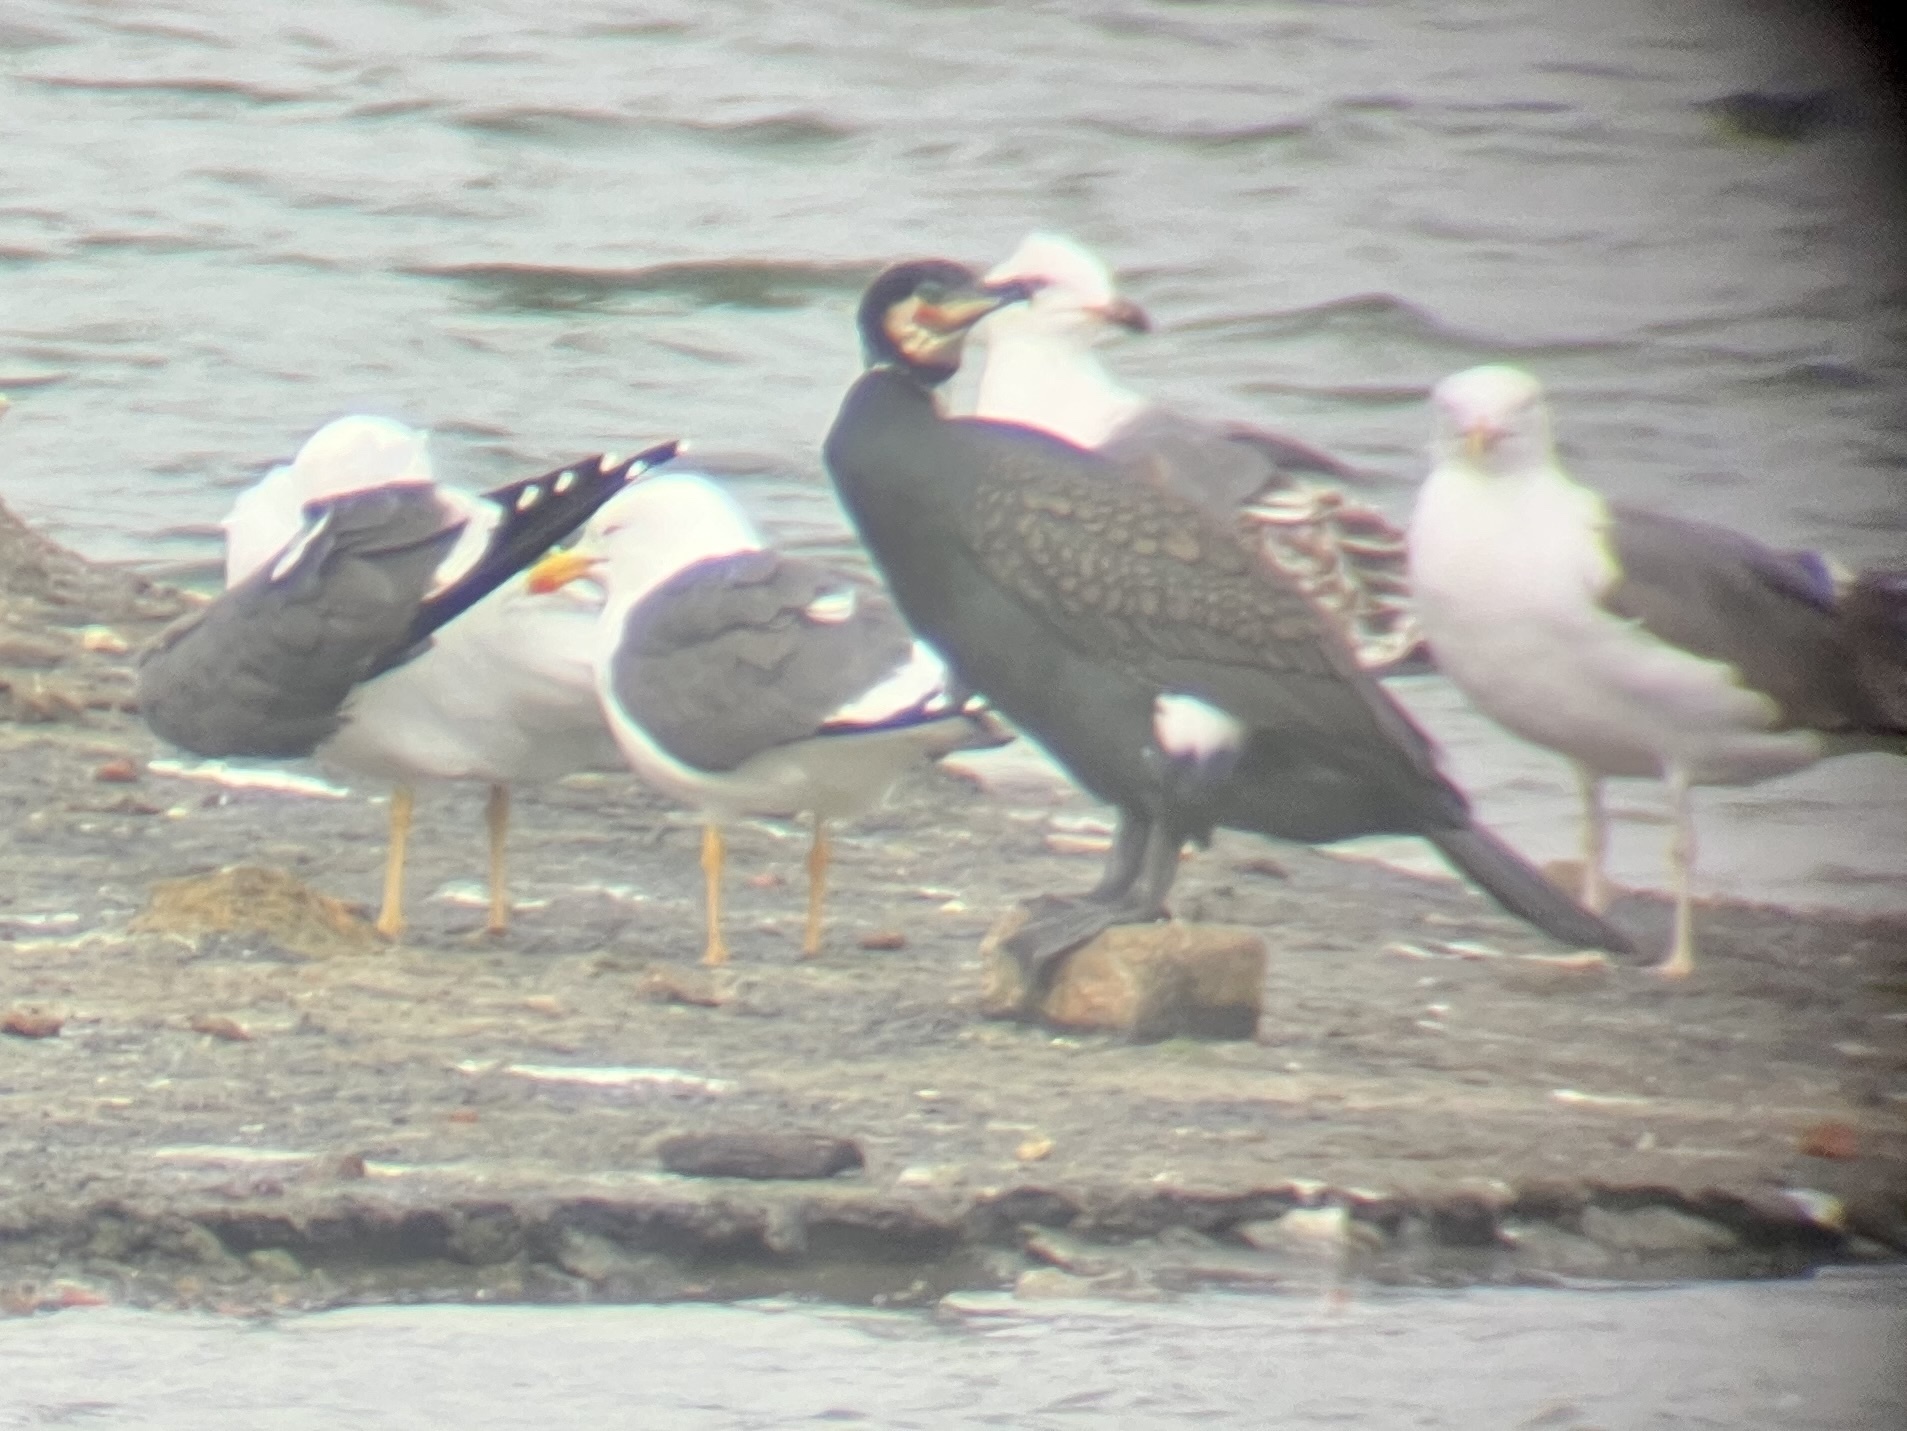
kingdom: Animalia
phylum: Chordata
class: Aves
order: Suliformes
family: Phalacrocoracidae
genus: Phalacrocorax
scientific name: Phalacrocorax carbo
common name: Great cormorant
